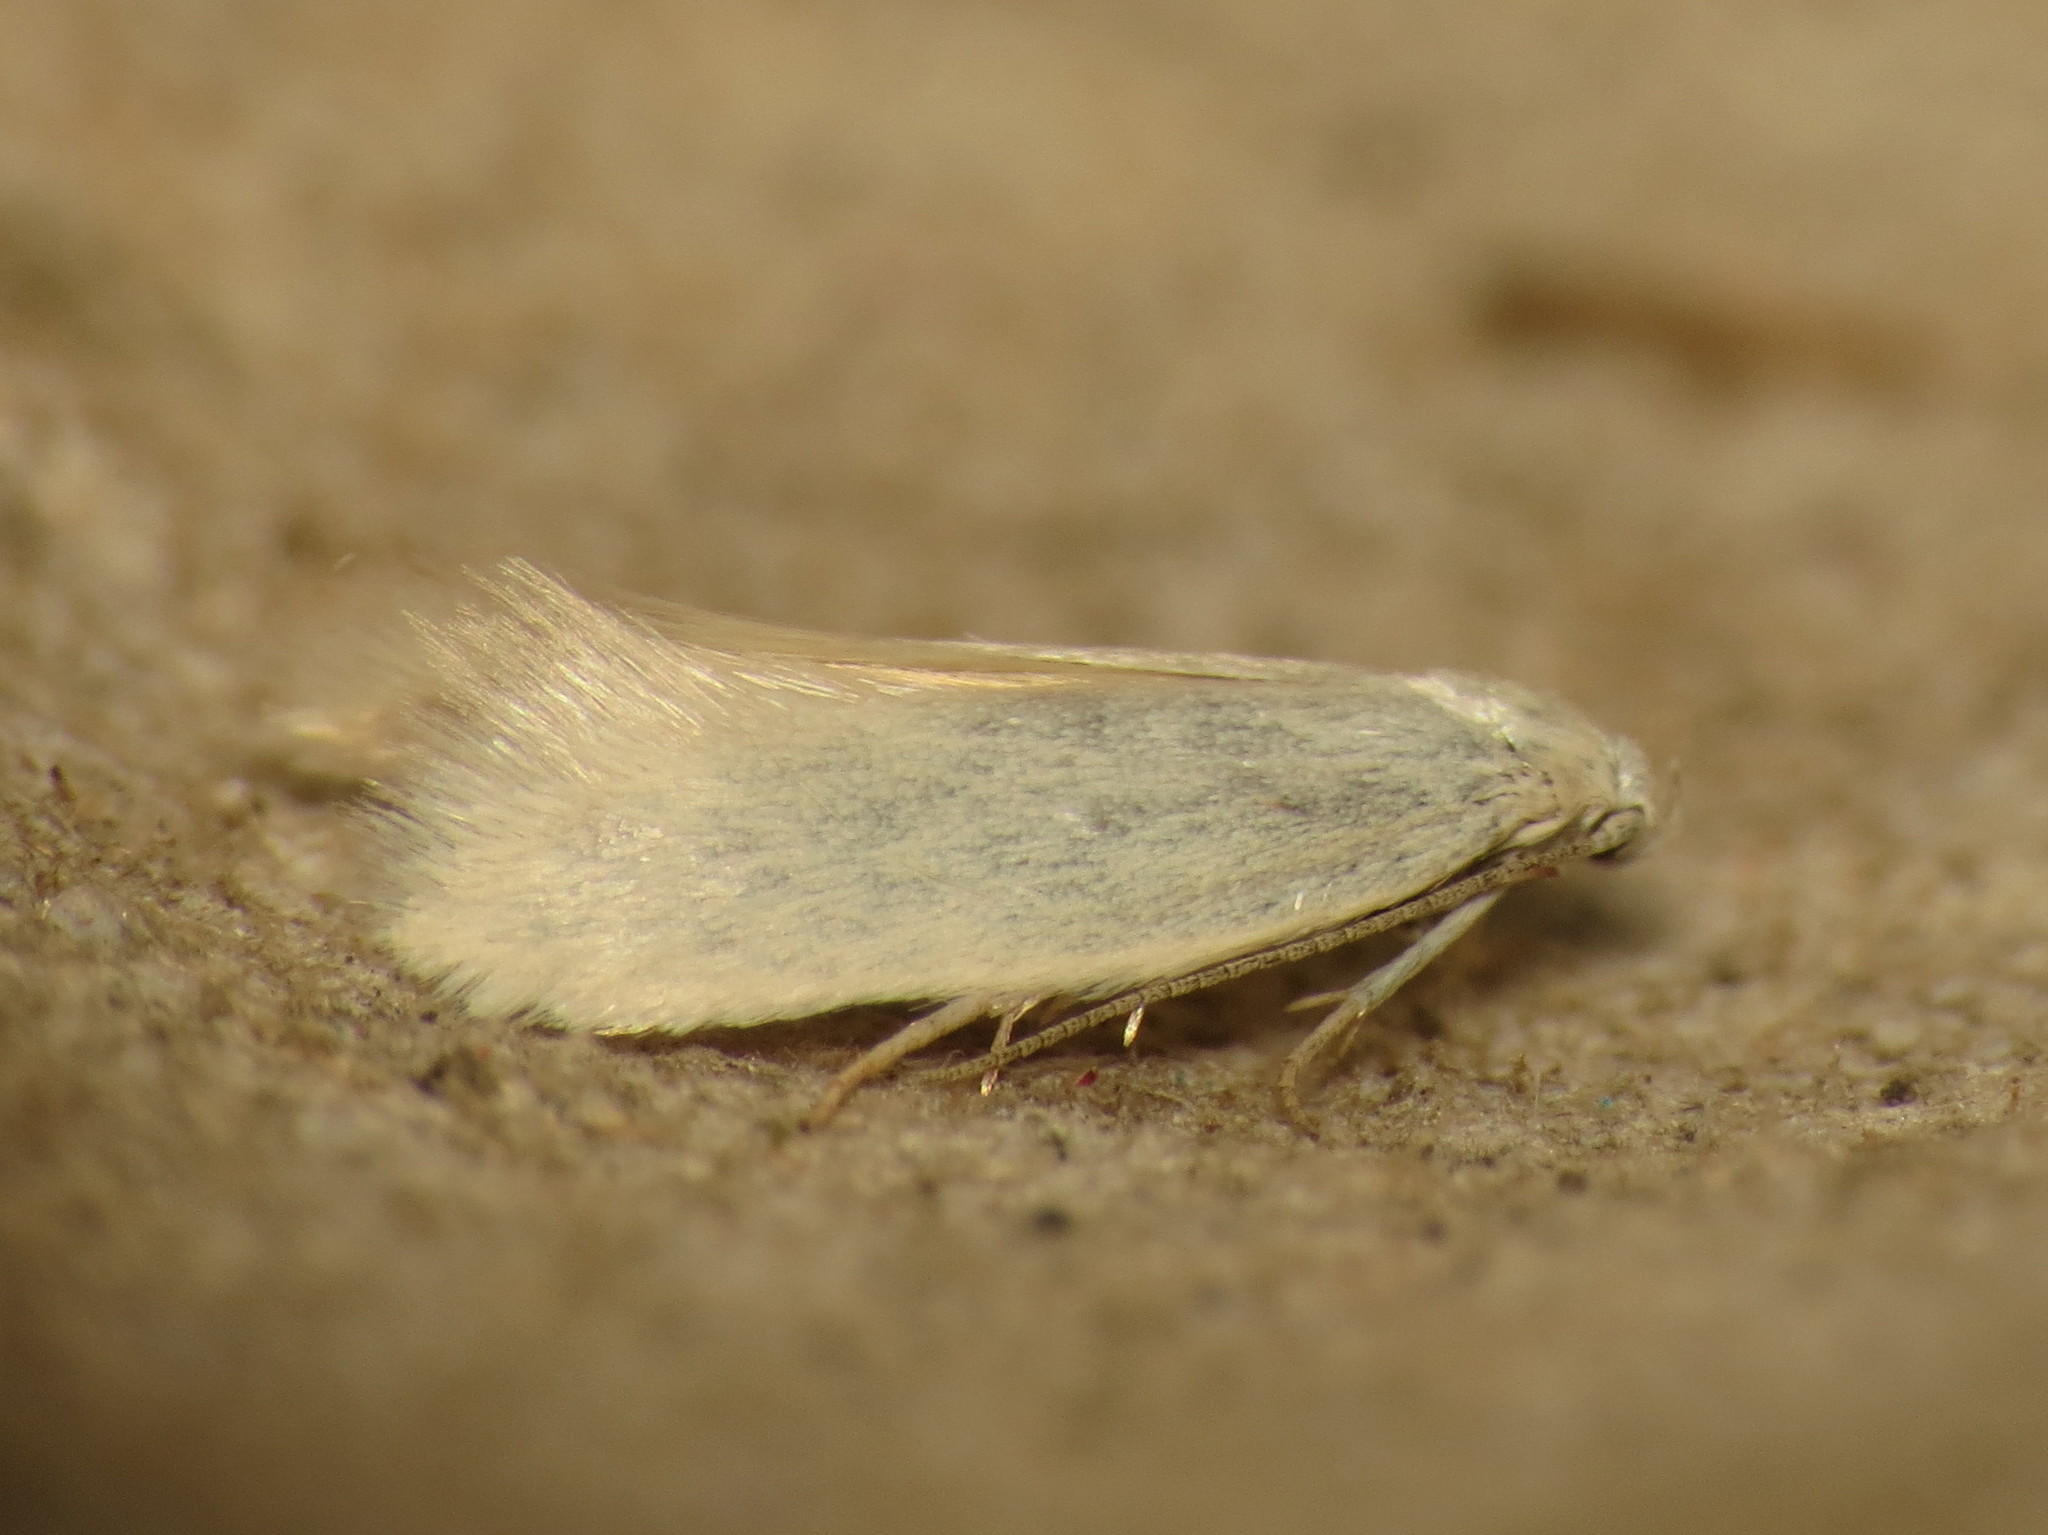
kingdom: Animalia
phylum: Arthropoda
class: Insecta
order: Lepidoptera
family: Elachistidae
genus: Elachista
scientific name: Elachista subalbidella
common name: Buff dwarf
